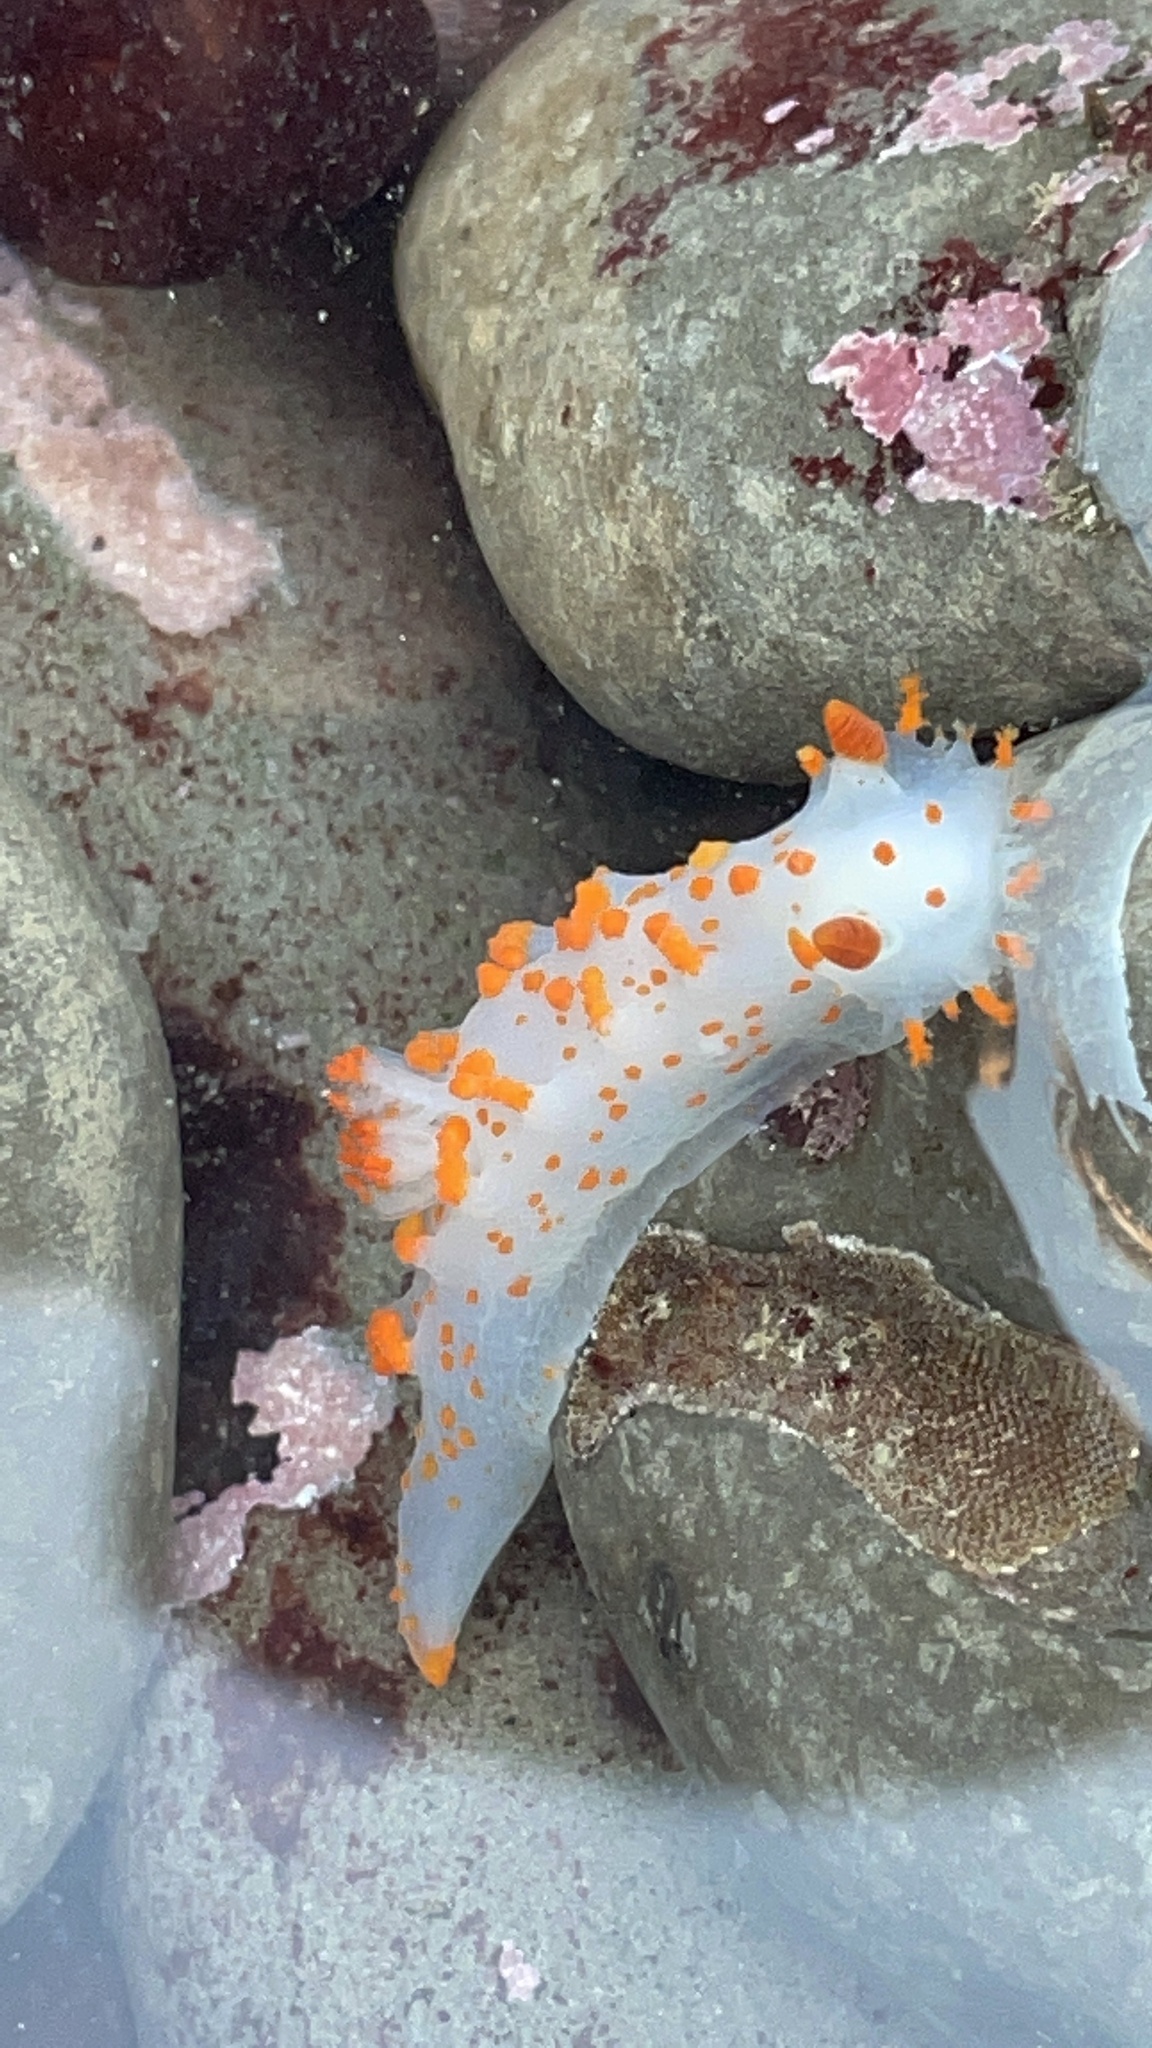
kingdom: Animalia
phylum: Mollusca
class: Gastropoda
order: Nudibranchia
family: Polyceridae
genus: Triopha
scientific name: Triopha catalinae
